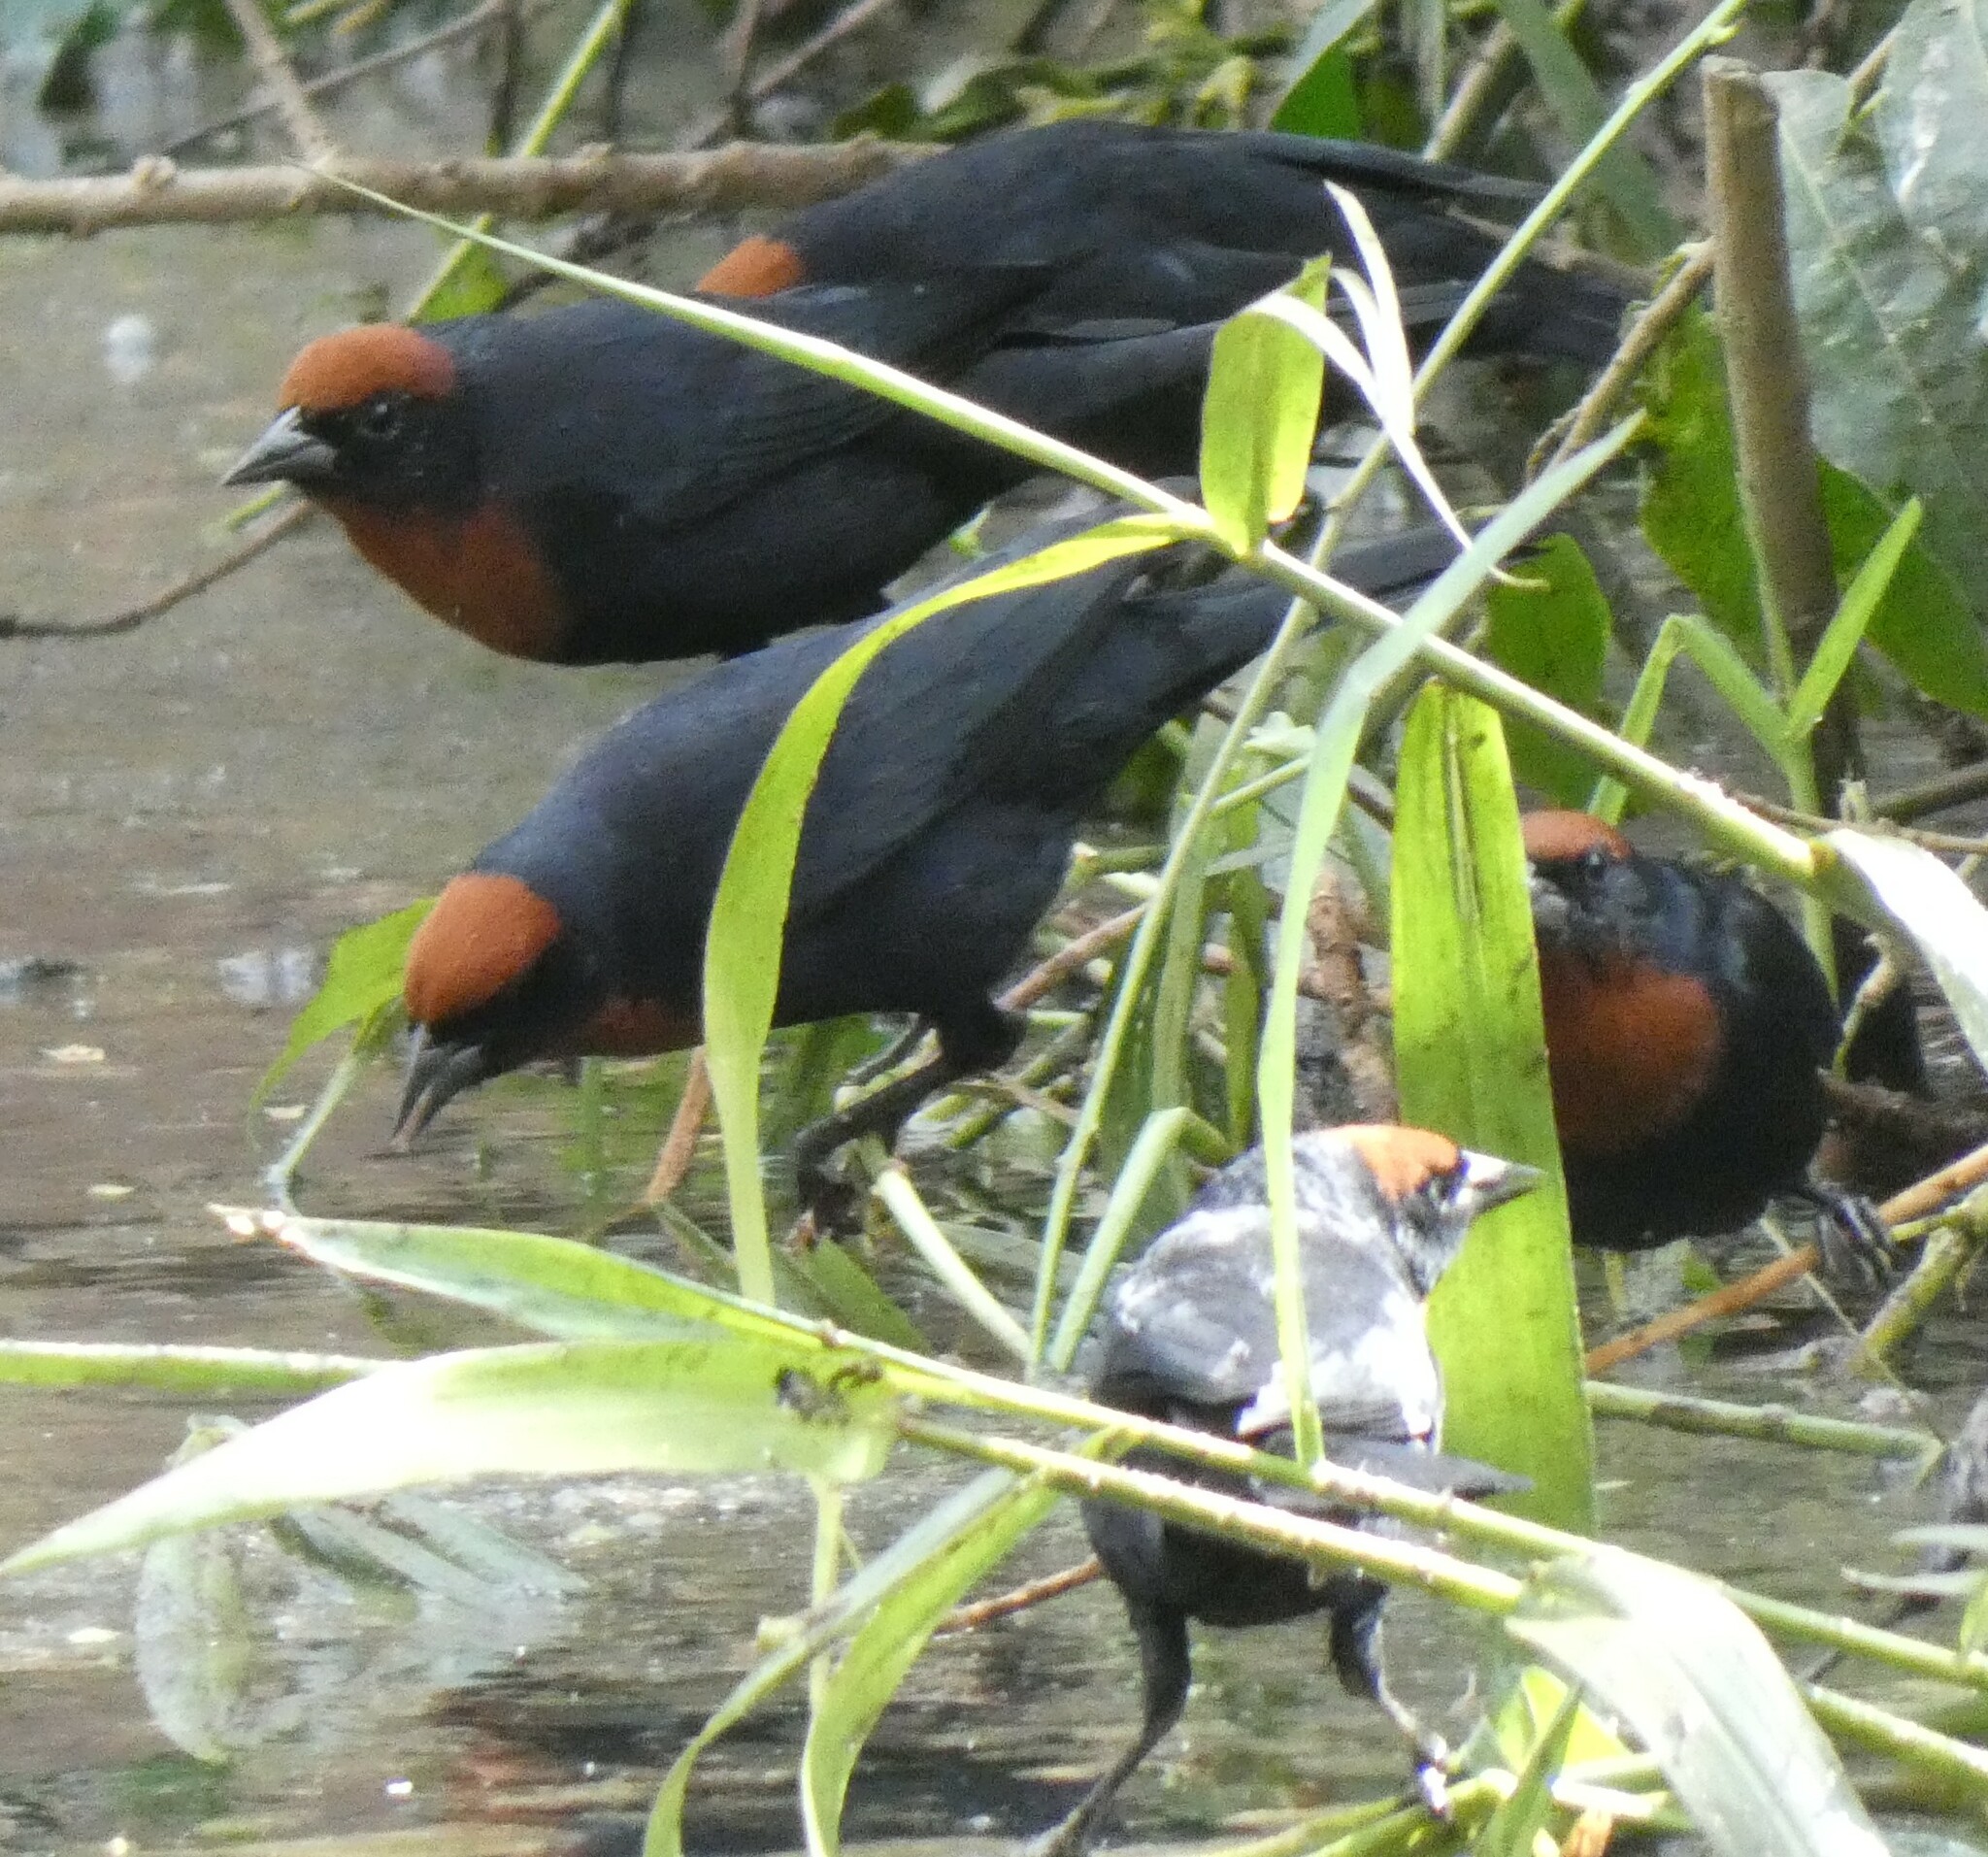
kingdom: Animalia
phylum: Chordata
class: Aves
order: Passeriformes
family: Icteridae
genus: Chrysomus
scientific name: Chrysomus ruficapillus
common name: Chestnut-capped blackbird
